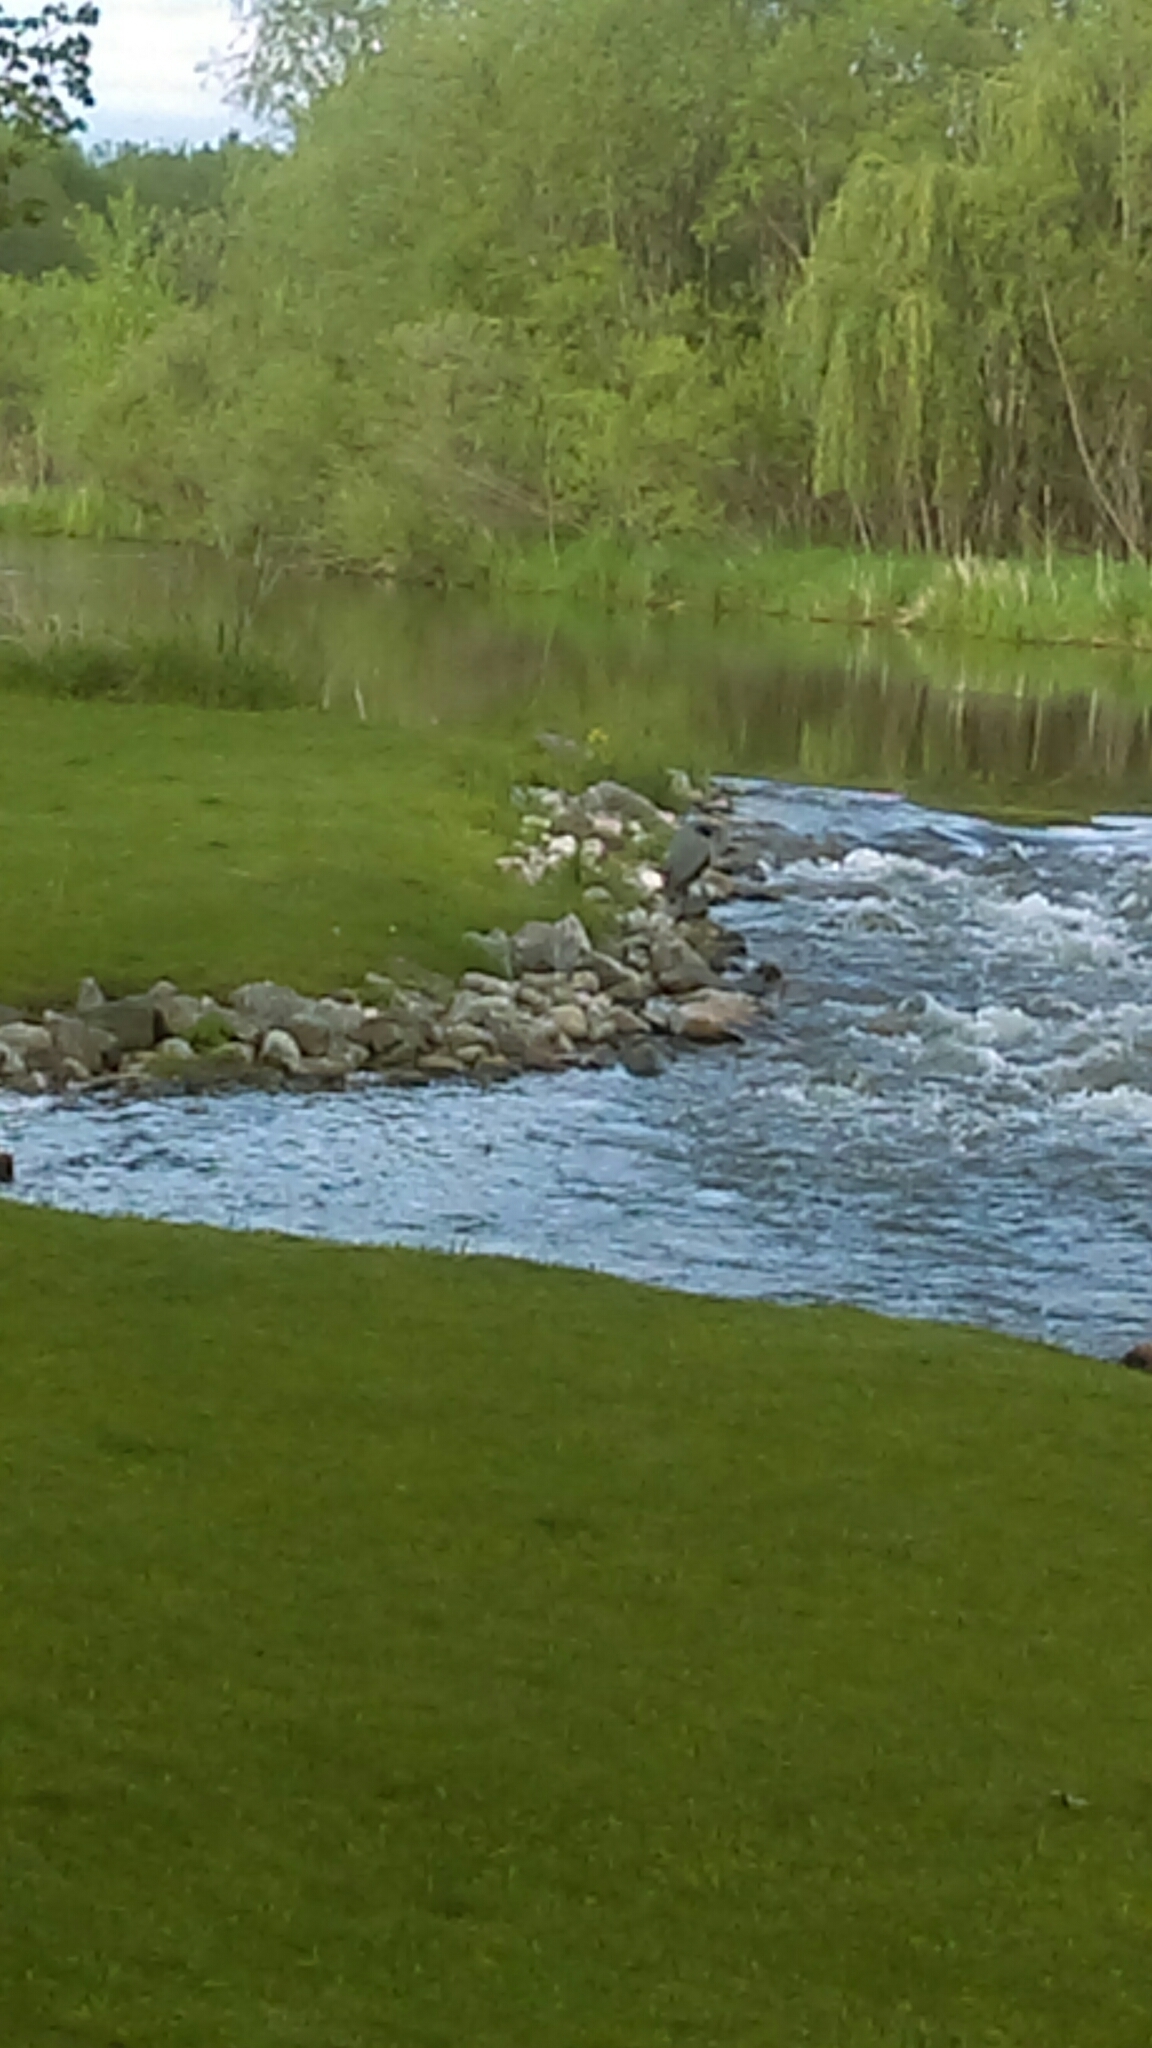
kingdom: Animalia
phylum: Chordata
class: Aves
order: Pelecaniformes
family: Ardeidae
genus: Ardea
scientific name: Ardea herodias
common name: Great blue heron
